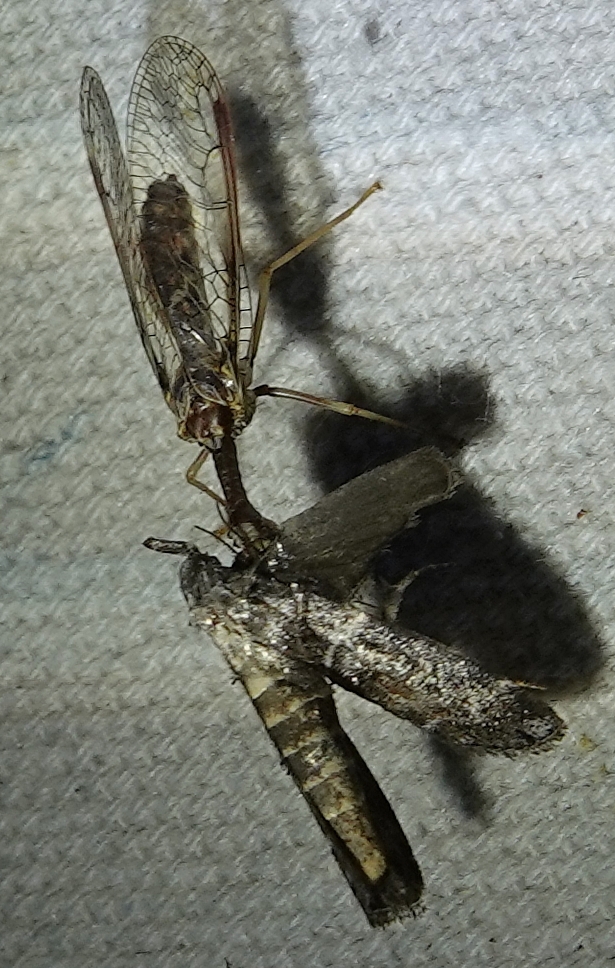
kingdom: Animalia
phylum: Arthropoda
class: Insecta
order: Neuroptera
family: Mantispidae
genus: Dicromantispa
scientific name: Dicromantispa sayi
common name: Say's mantidfly
